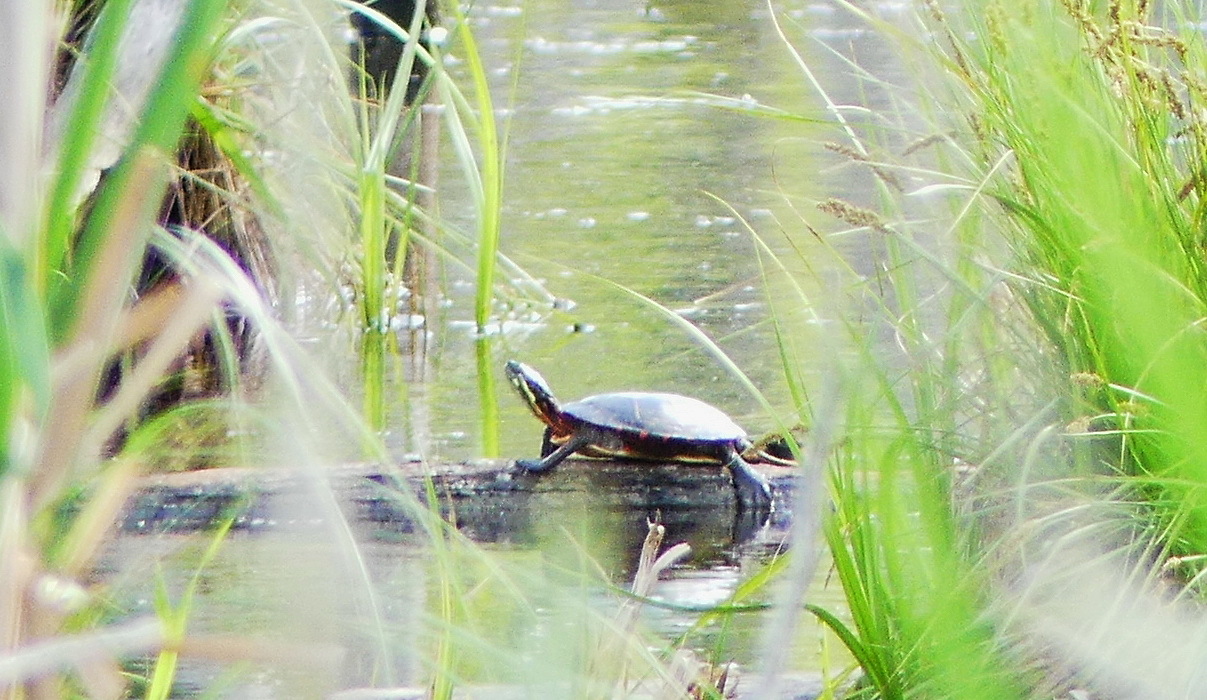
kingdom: Animalia
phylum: Chordata
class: Testudines
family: Emydidae
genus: Chrysemys
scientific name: Chrysemys picta
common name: Painted turtle
